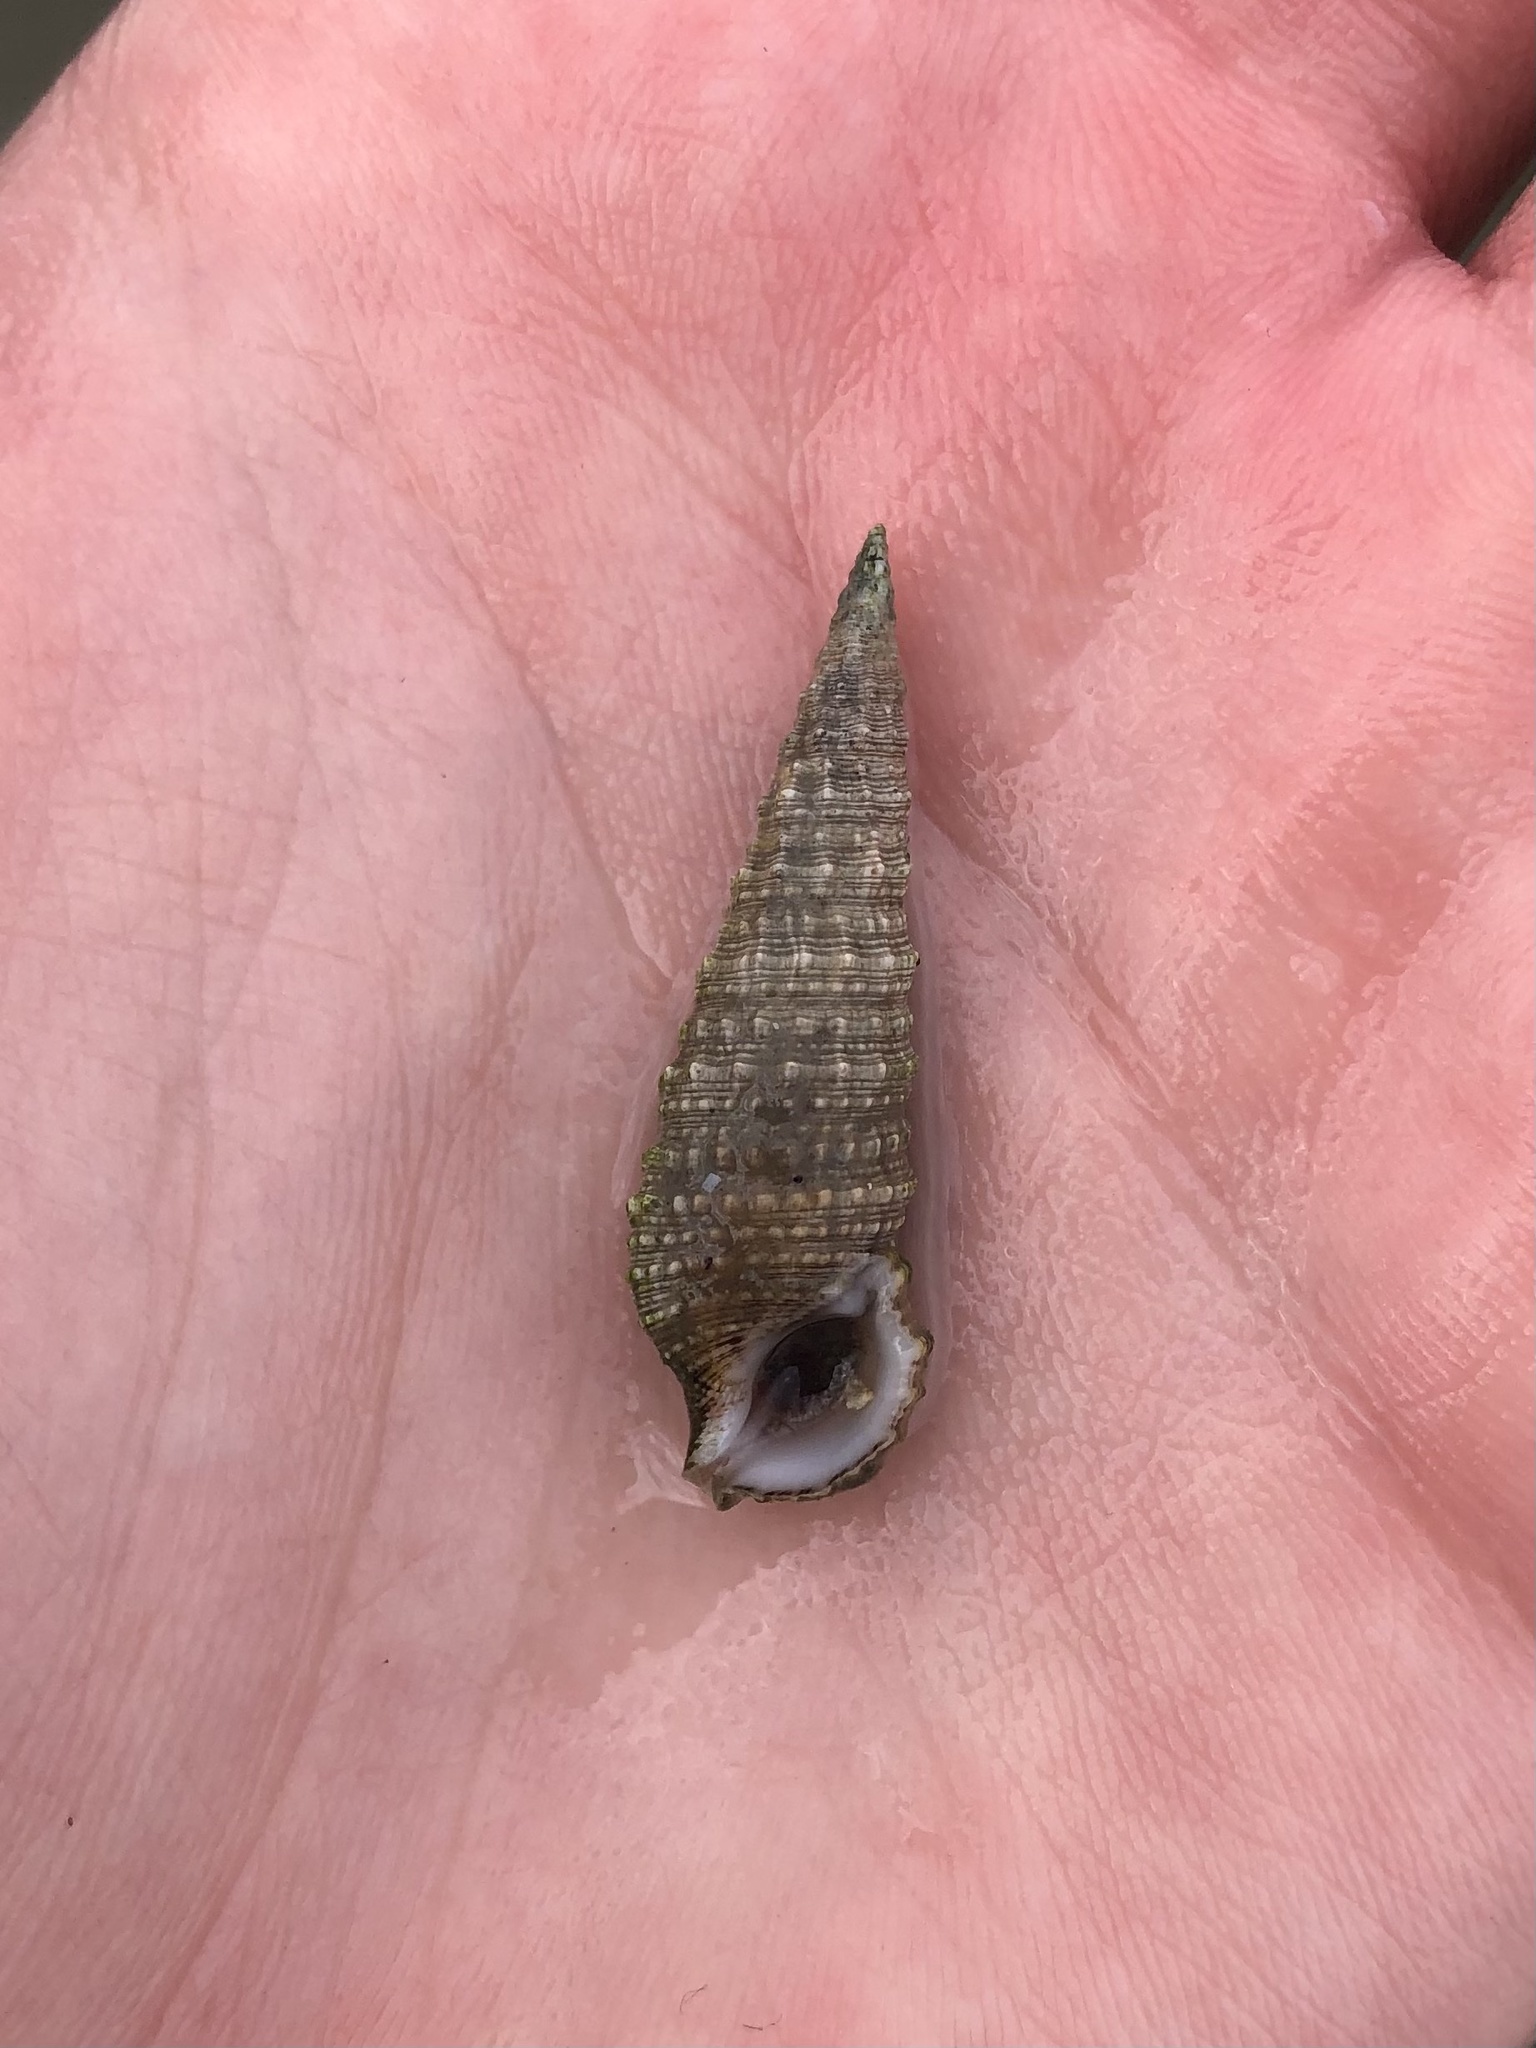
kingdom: Animalia
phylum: Mollusca
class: Gastropoda
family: Cerithiidae
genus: Cerithium
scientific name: Cerithium atratum
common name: Dark cerith
